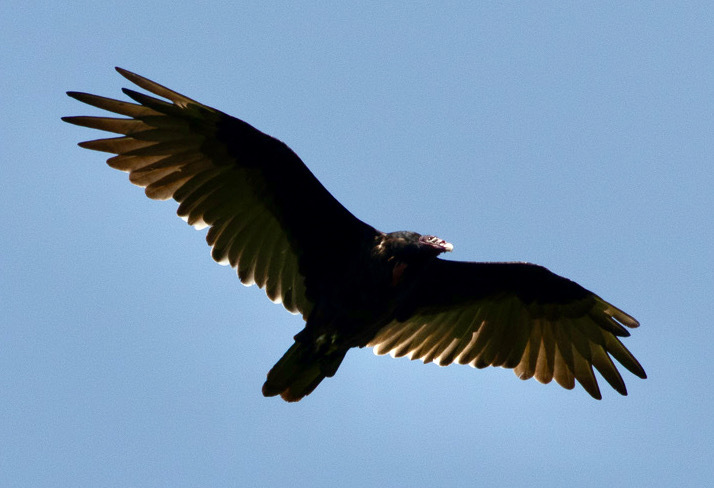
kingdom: Animalia
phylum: Chordata
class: Aves
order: Accipitriformes
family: Cathartidae
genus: Cathartes
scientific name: Cathartes aura
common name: Turkey vulture
